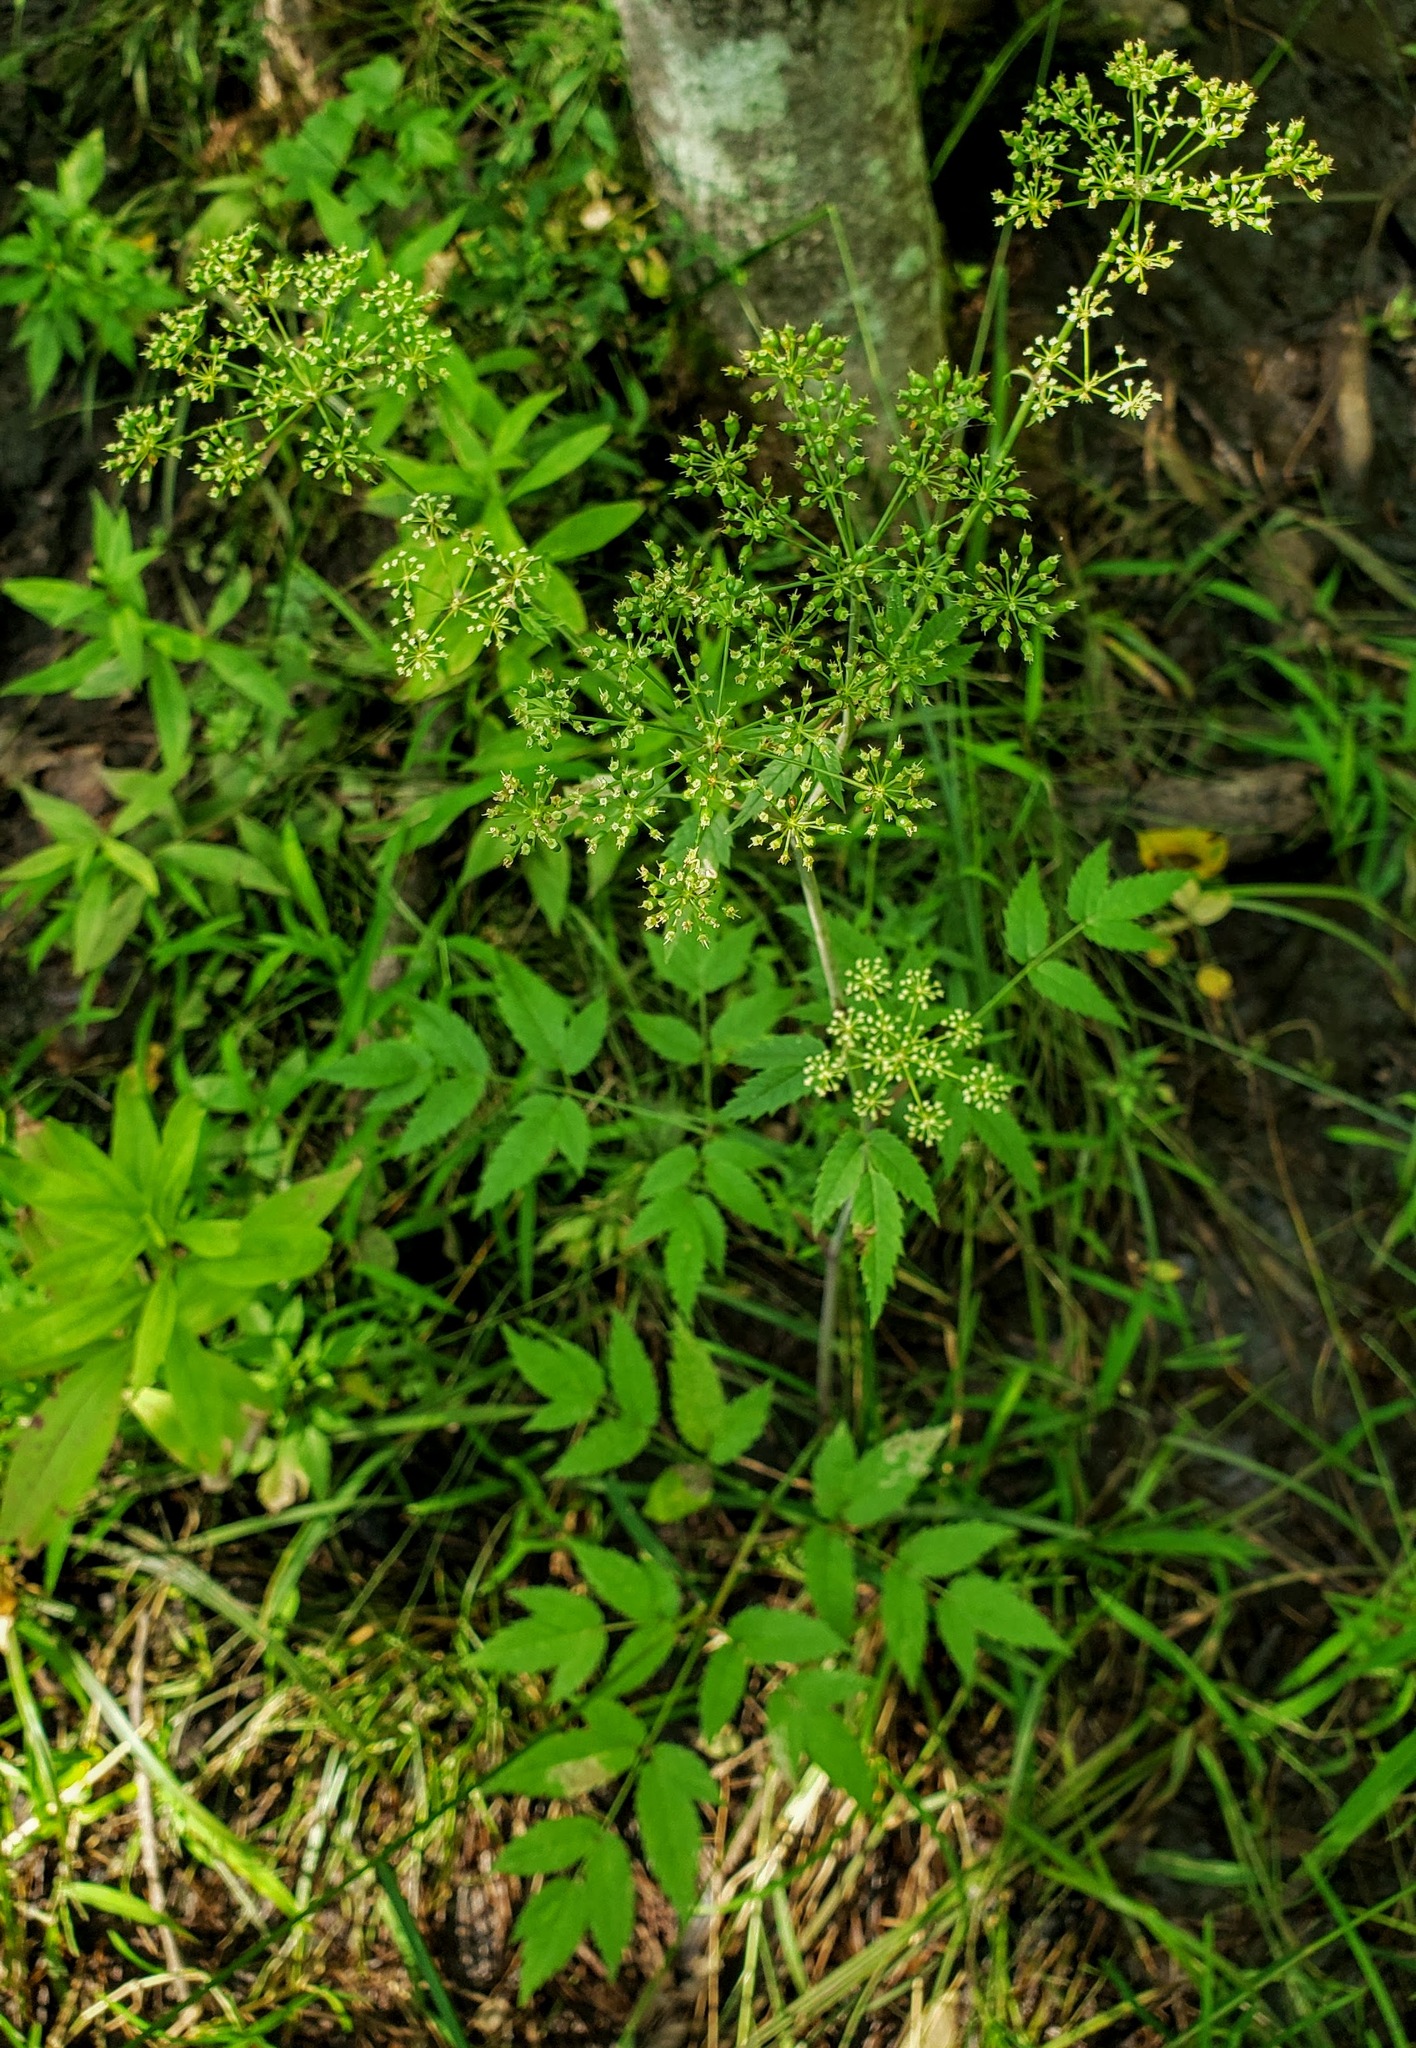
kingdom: Plantae
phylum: Tracheophyta
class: Magnoliopsida
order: Apiales
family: Apiaceae
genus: Cicuta
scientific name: Cicuta maculata
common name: Spotted cowbane
